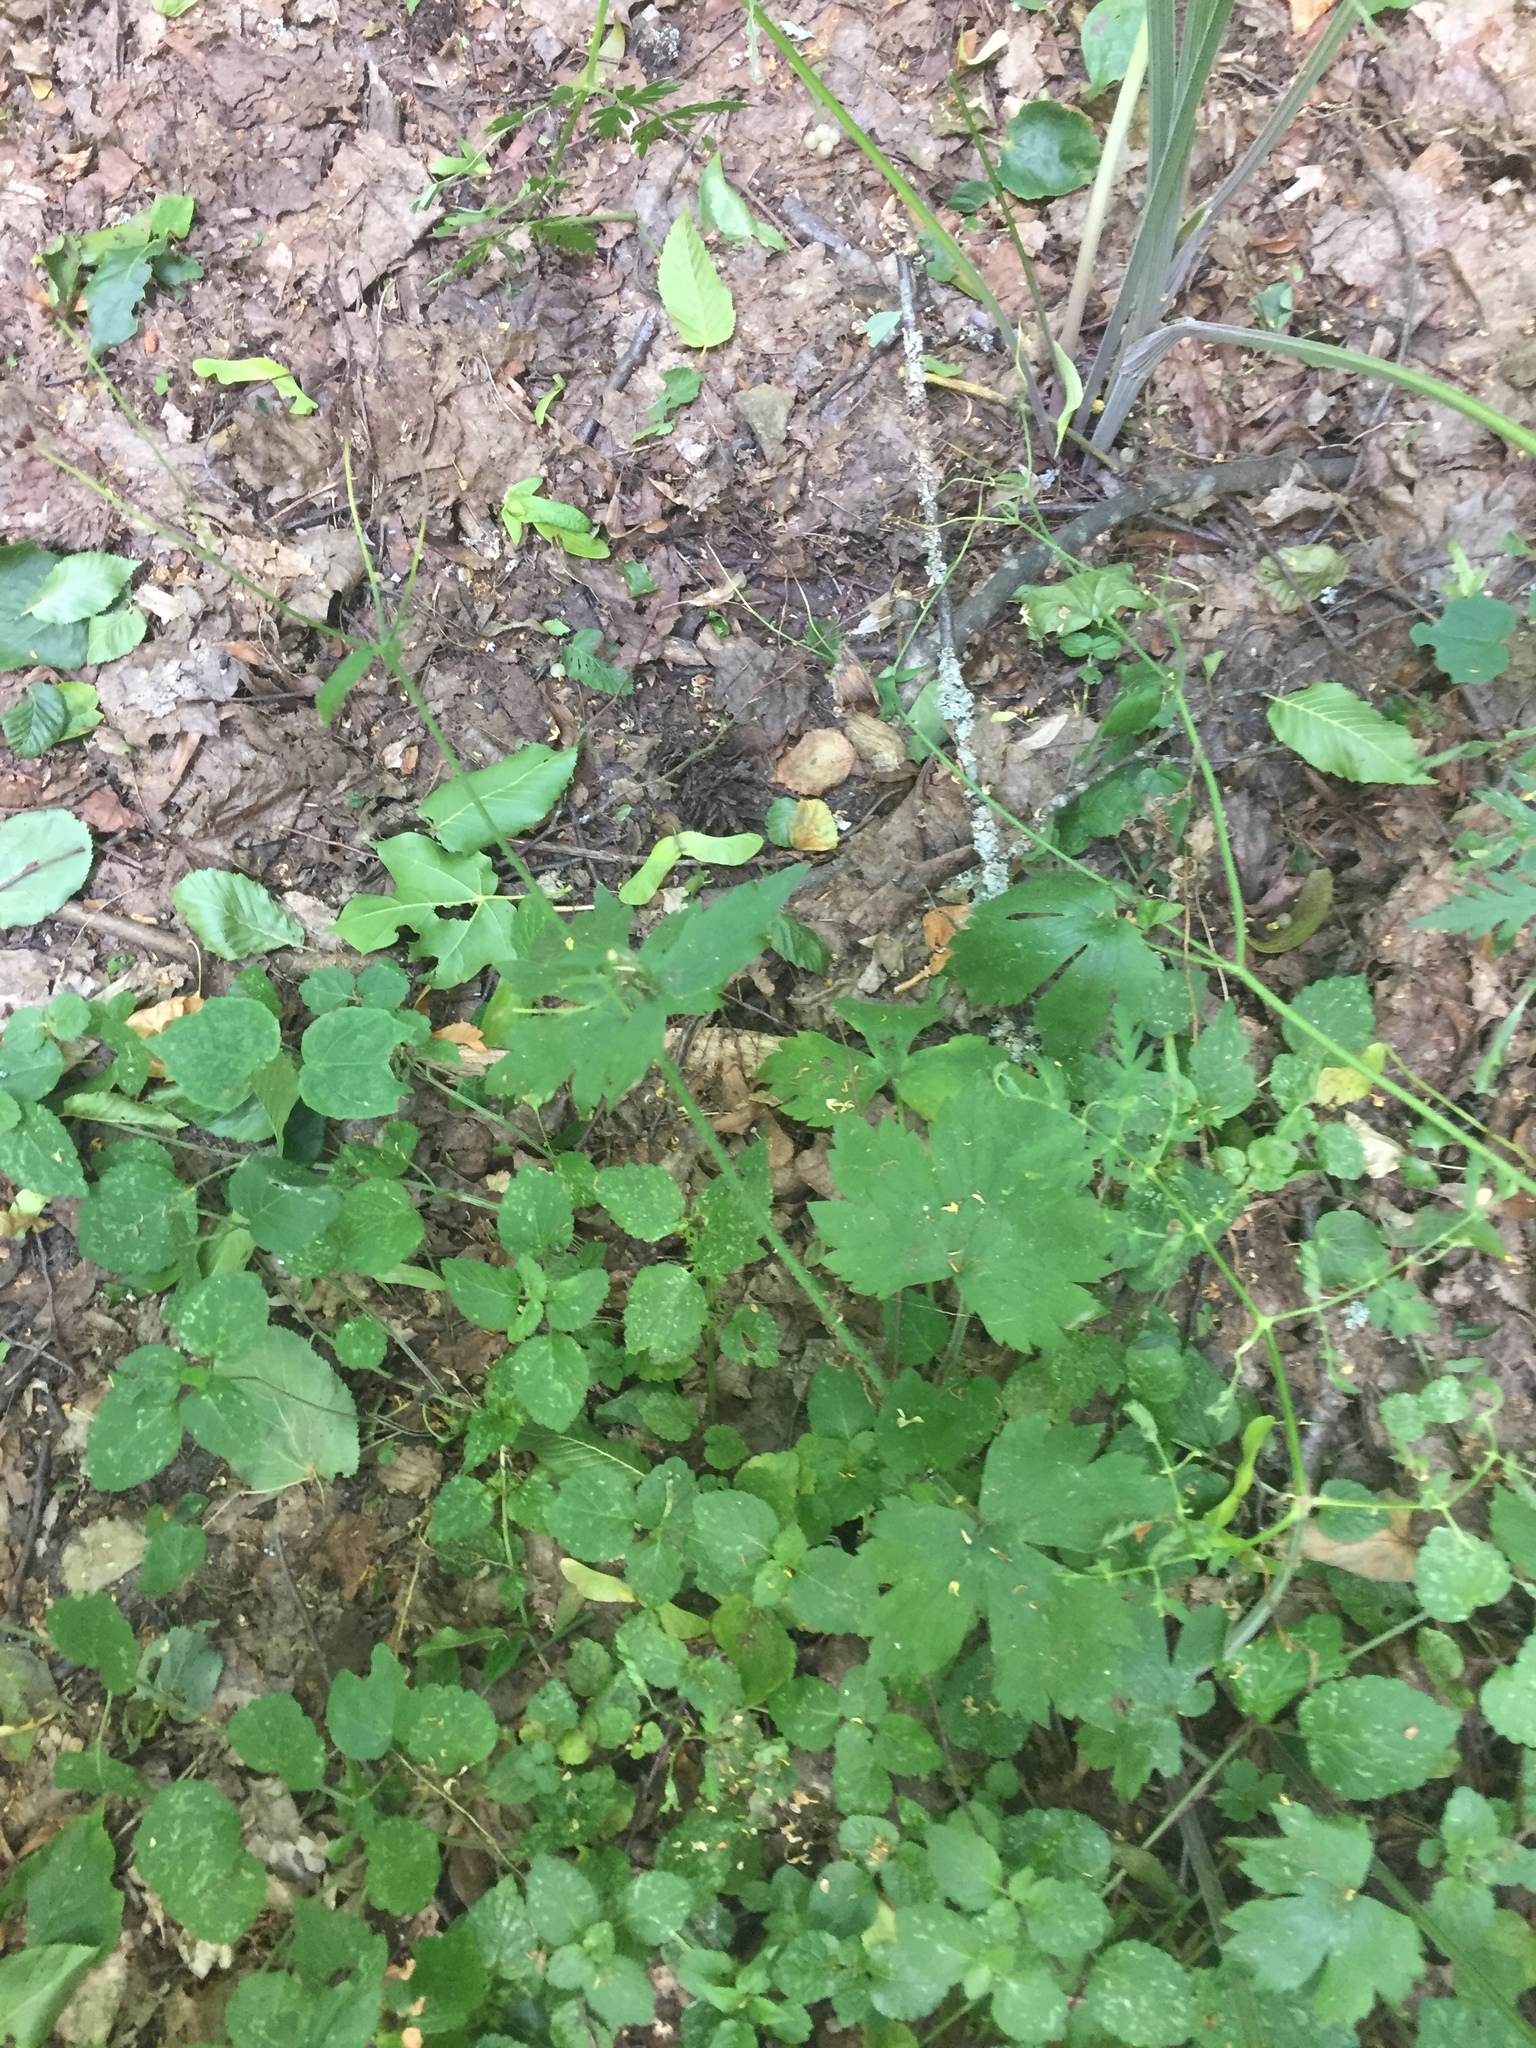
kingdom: Plantae
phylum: Tracheophyta
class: Magnoliopsida
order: Ranunculales
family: Ranunculaceae
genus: Ranunculus
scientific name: Ranunculus lanuginosus
